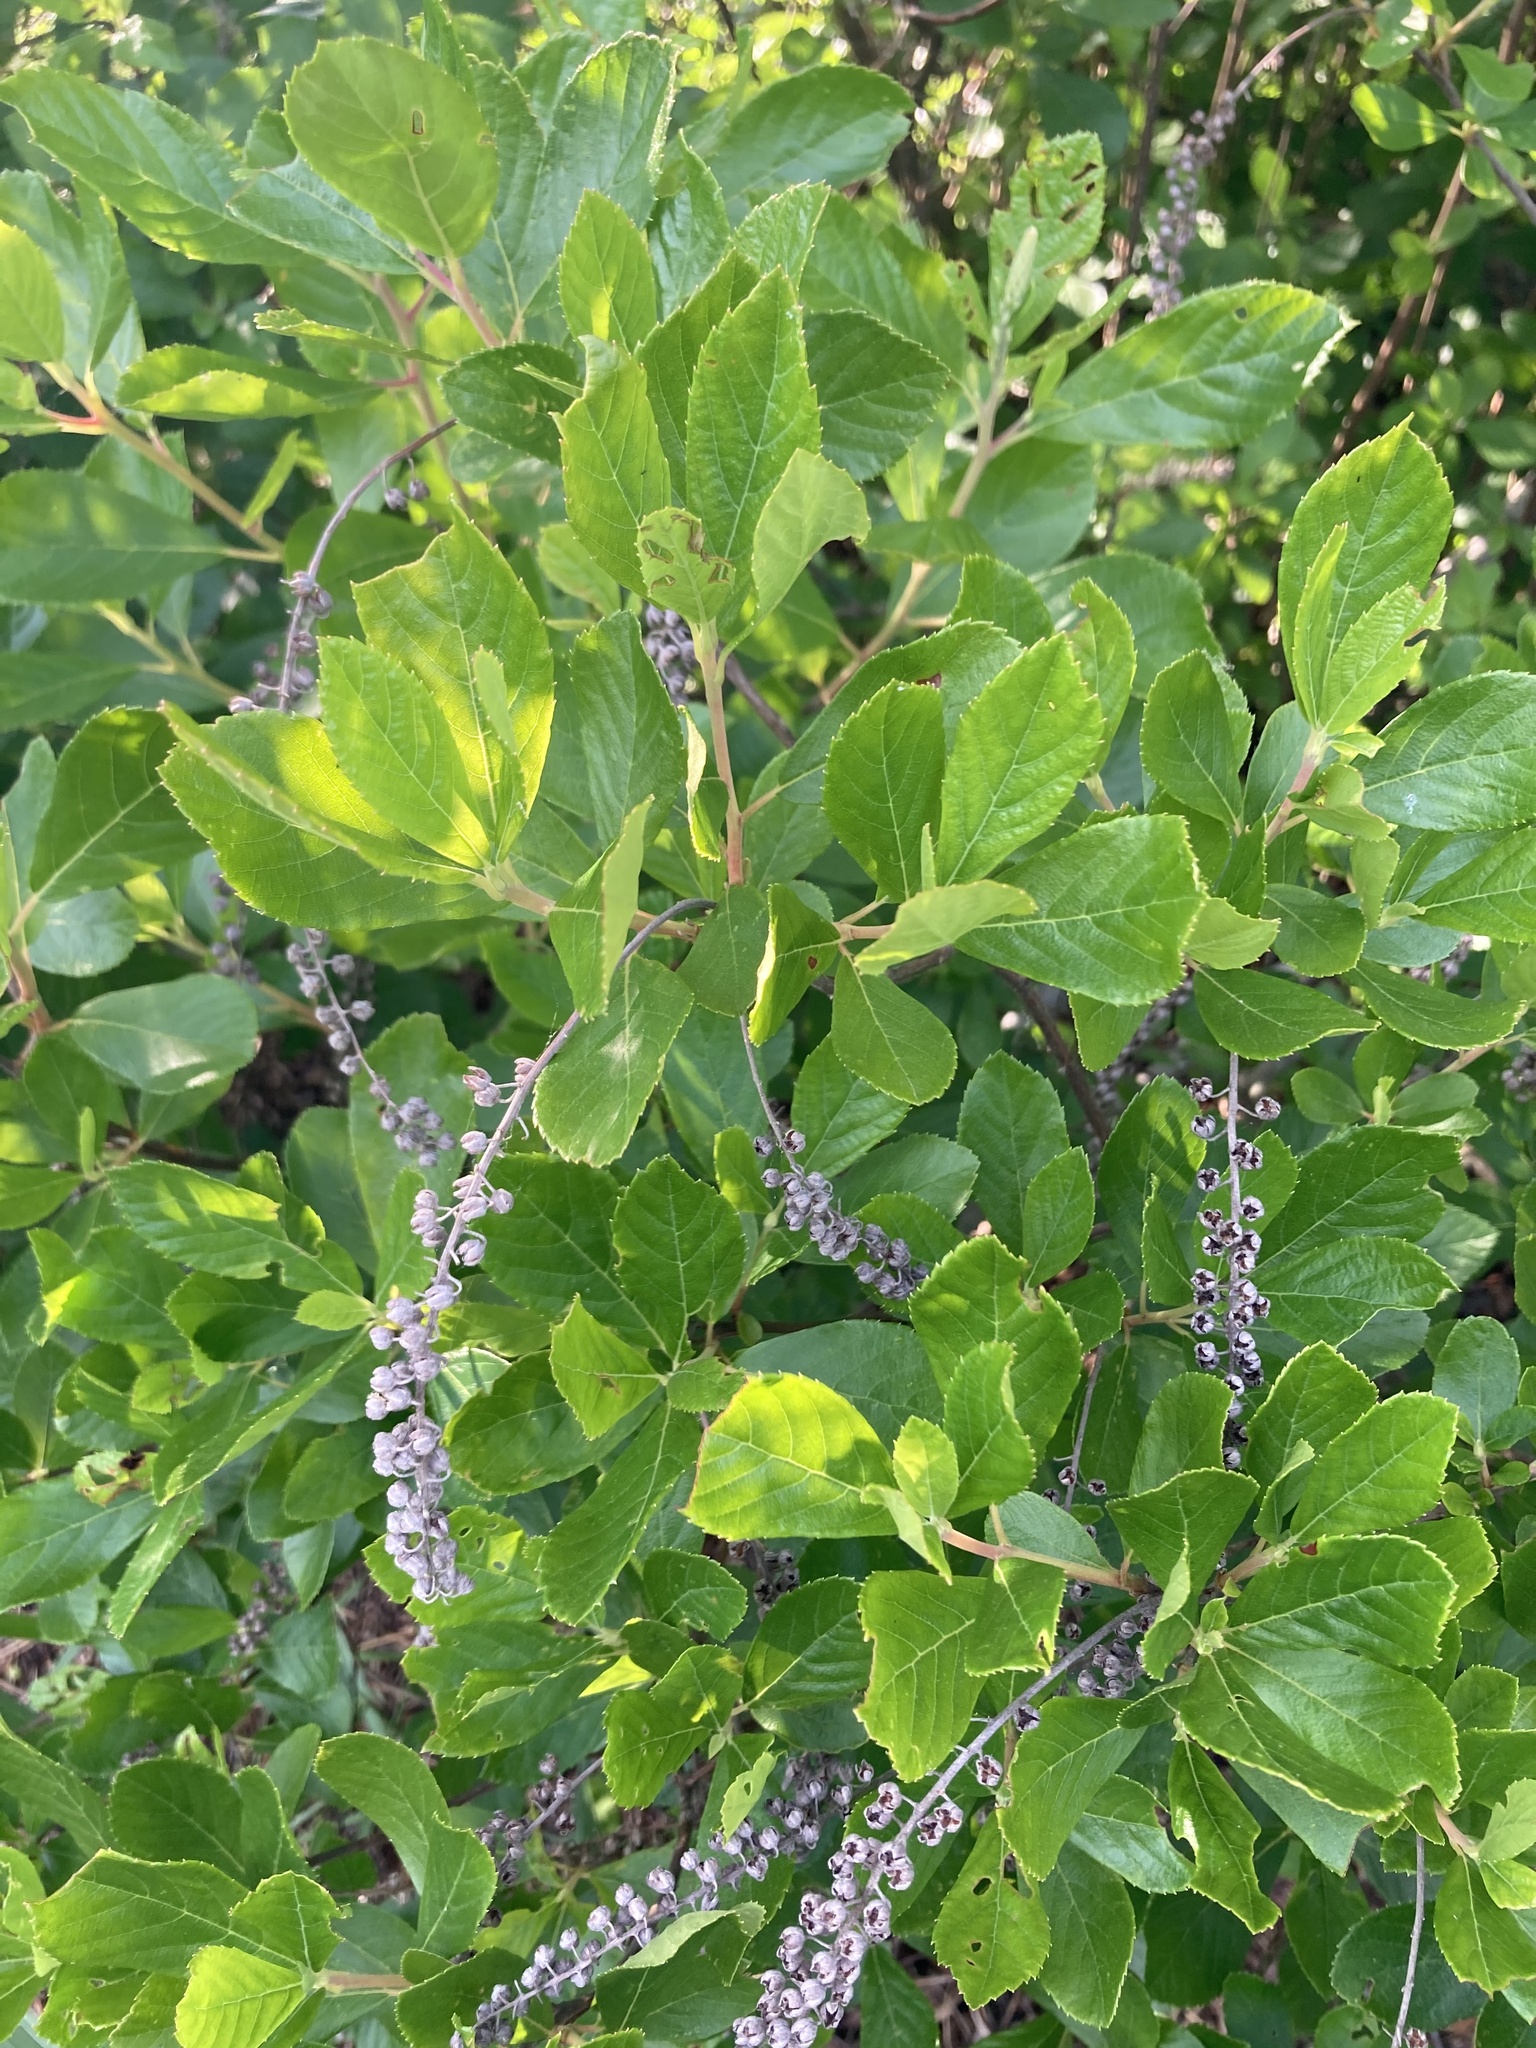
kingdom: Plantae
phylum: Tracheophyta
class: Magnoliopsida
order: Ericales
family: Clethraceae
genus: Clethra
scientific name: Clethra alnifolia
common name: Sweet pepperbush
